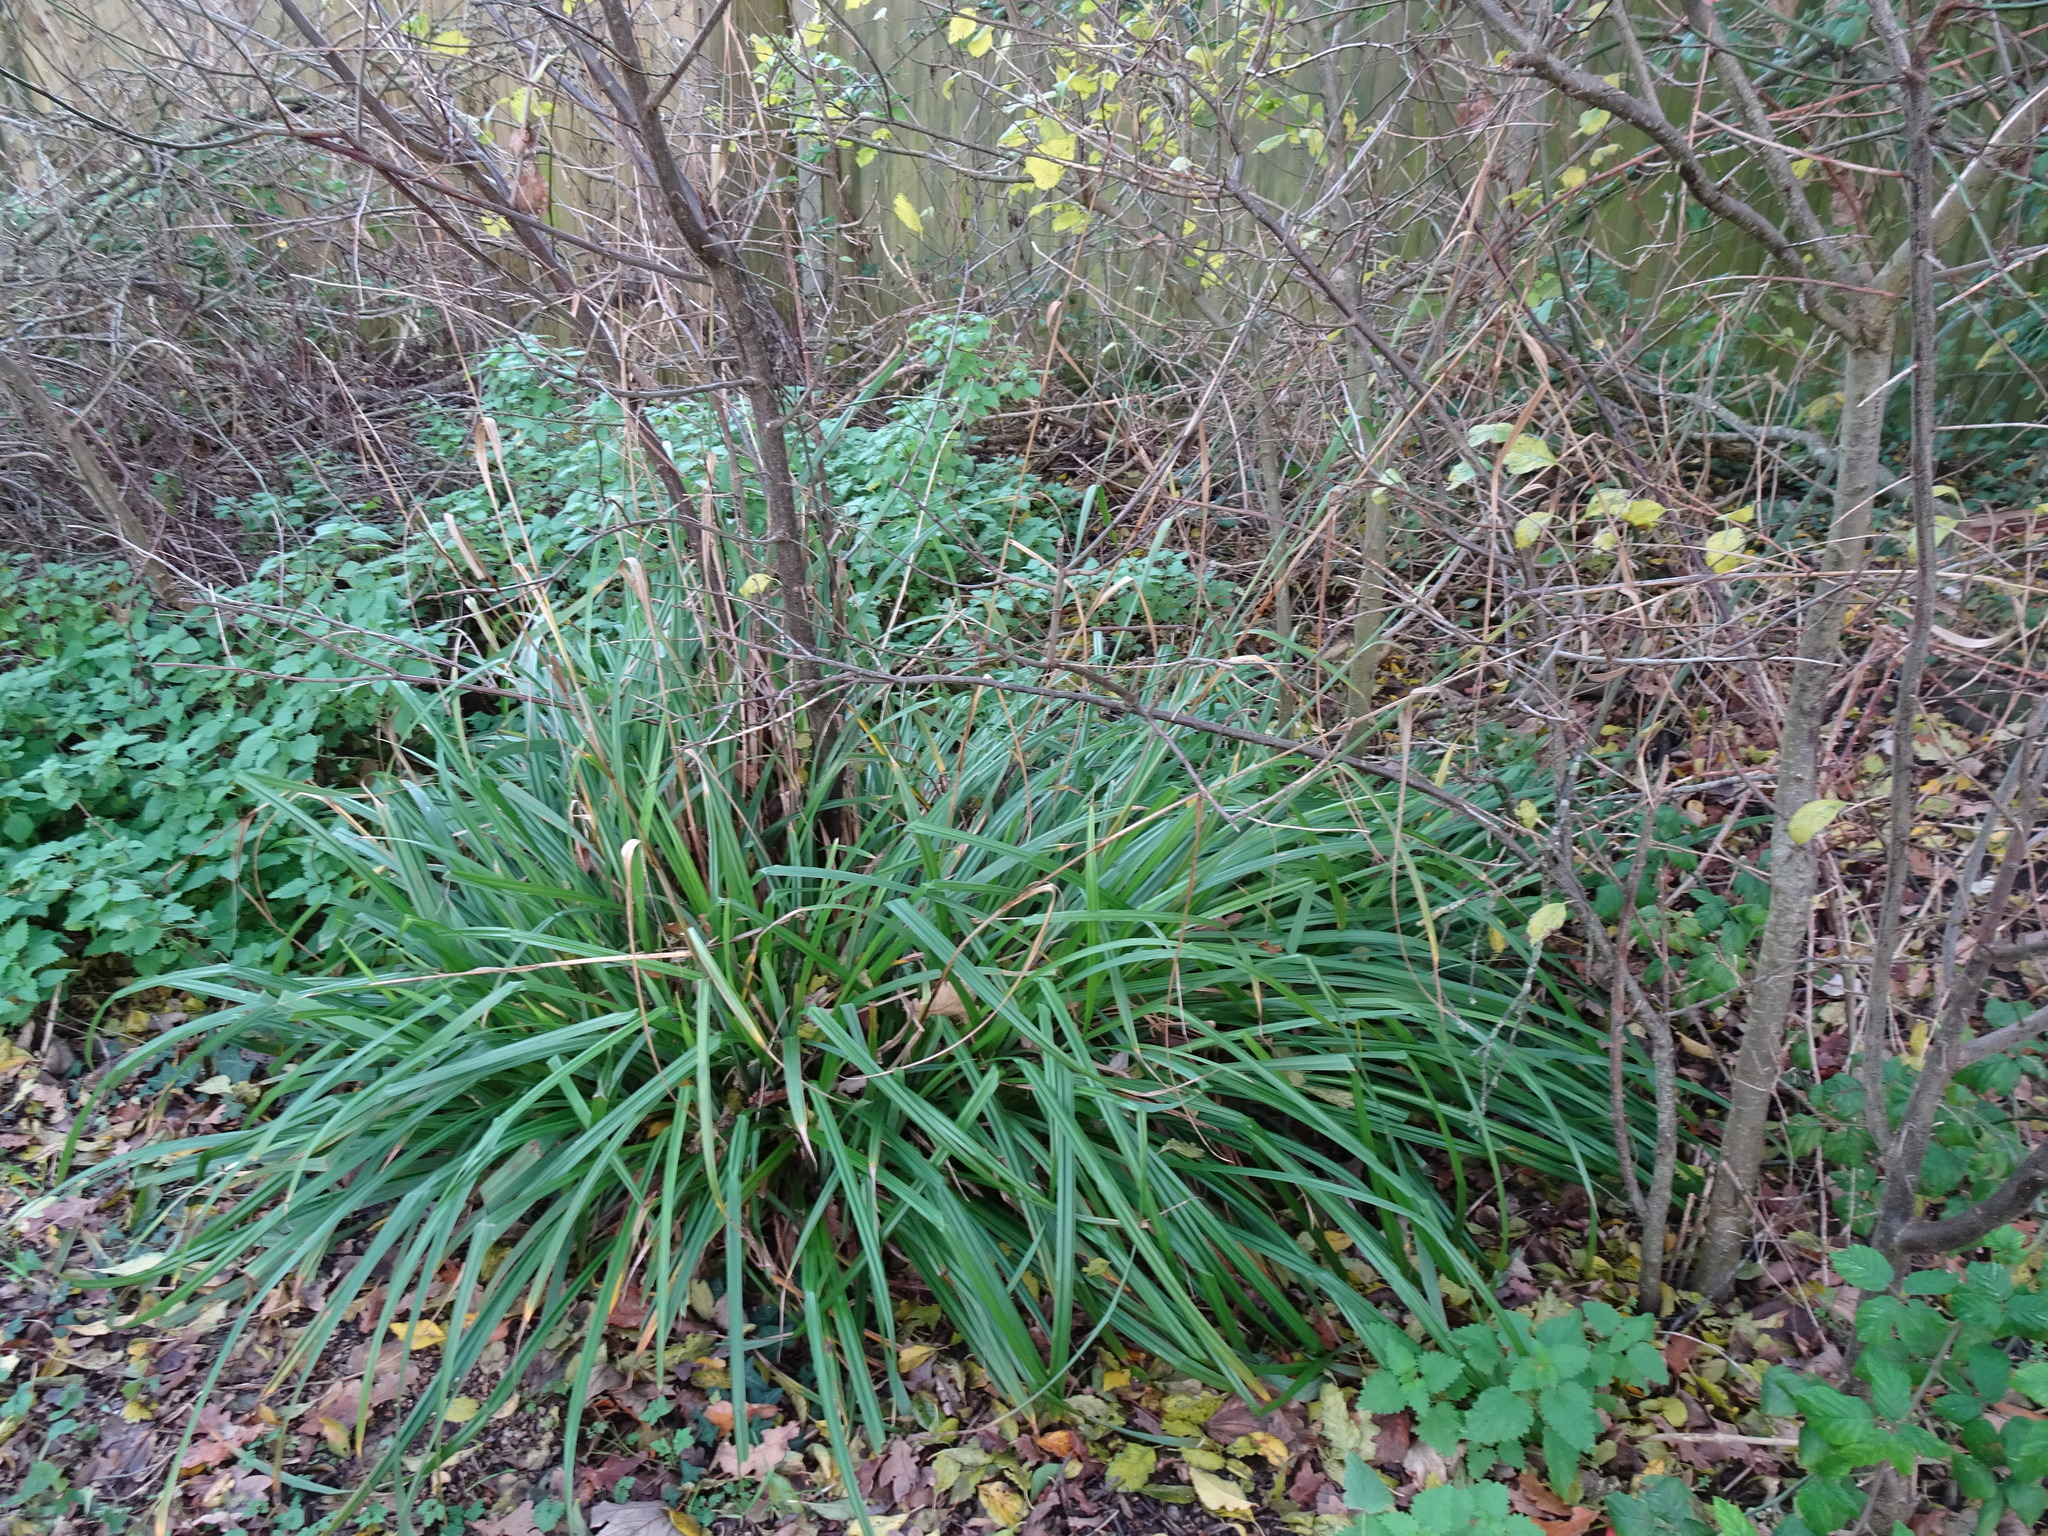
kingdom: Plantae
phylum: Tracheophyta
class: Liliopsida
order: Poales
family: Cyperaceae
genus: Carex
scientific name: Carex pendula
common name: Pendulous sedge
